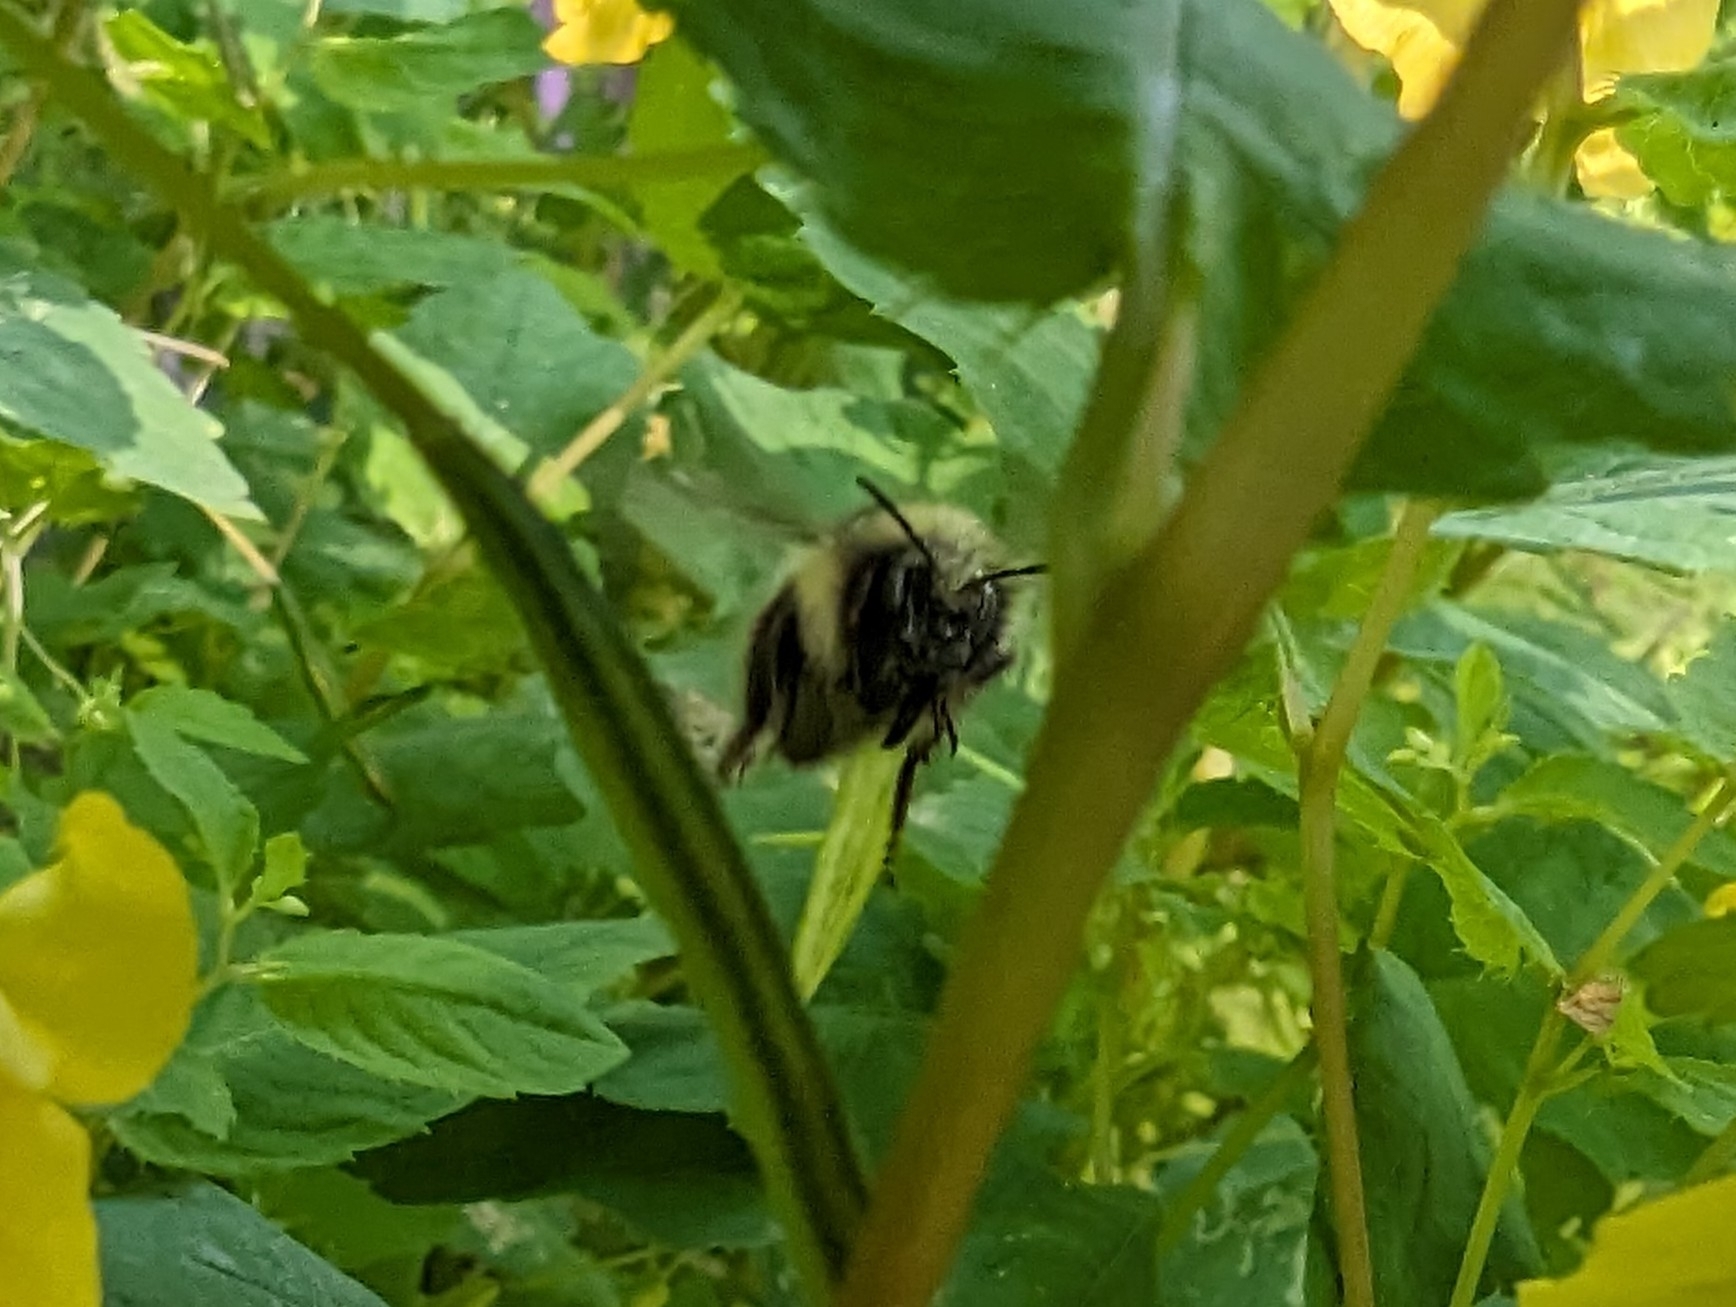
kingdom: Animalia
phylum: Arthropoda
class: Insecta
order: Hymenoptera
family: Apidae
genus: Bombus
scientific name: Bombus flavifrons
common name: Yellow head bumble bee
